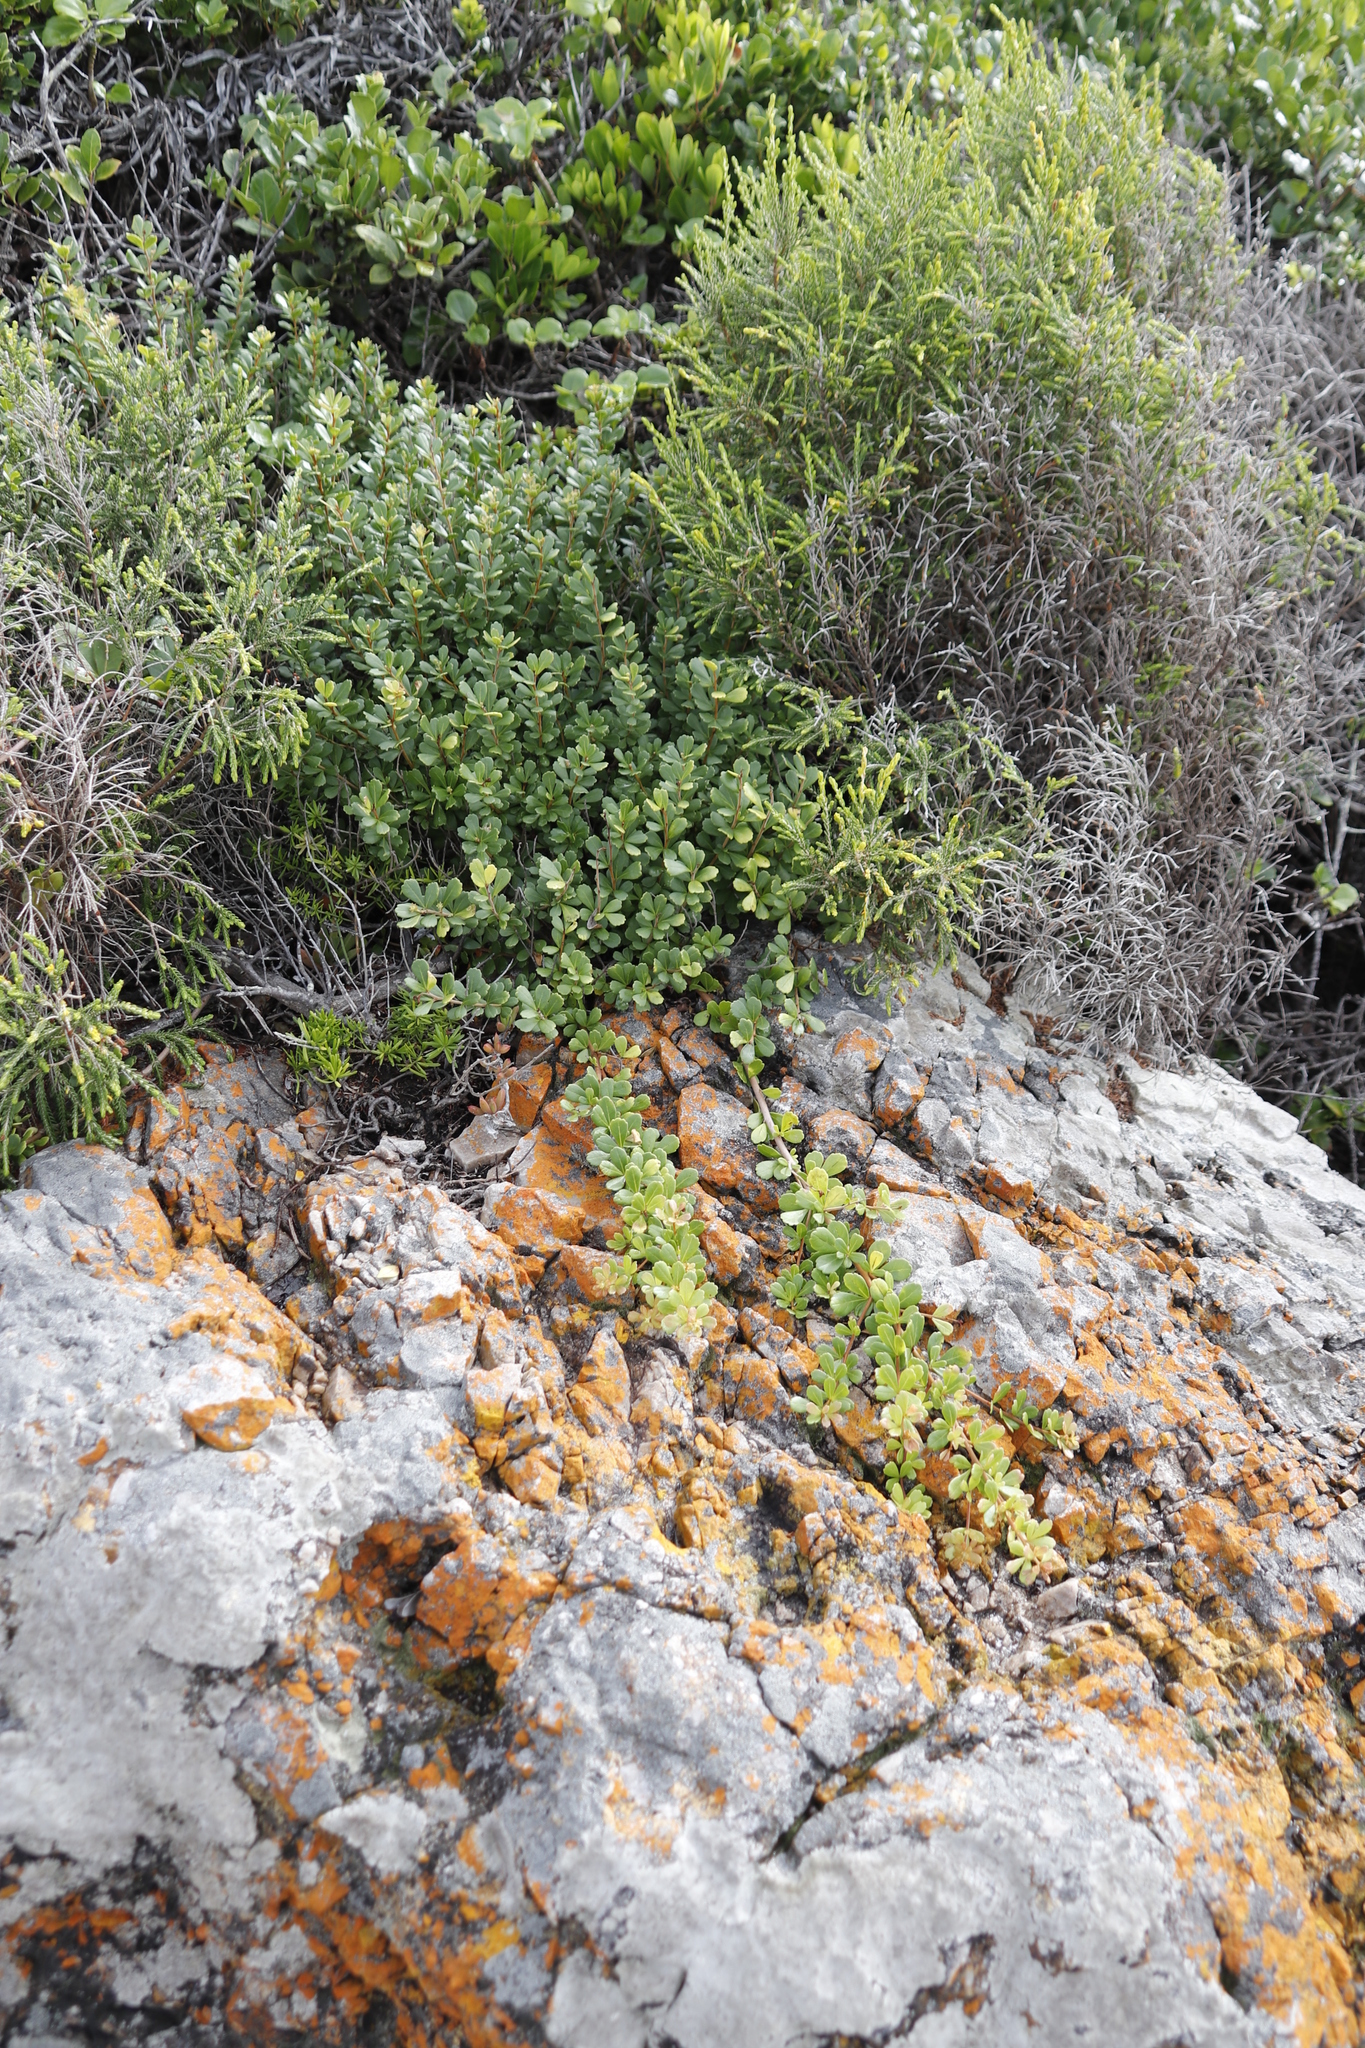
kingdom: Plantae
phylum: Tracheophyta
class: Magnoliopsida
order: Sapindales
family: Anacardiaceae
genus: Searsia
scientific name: Searsia crenata
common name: Crowberry
